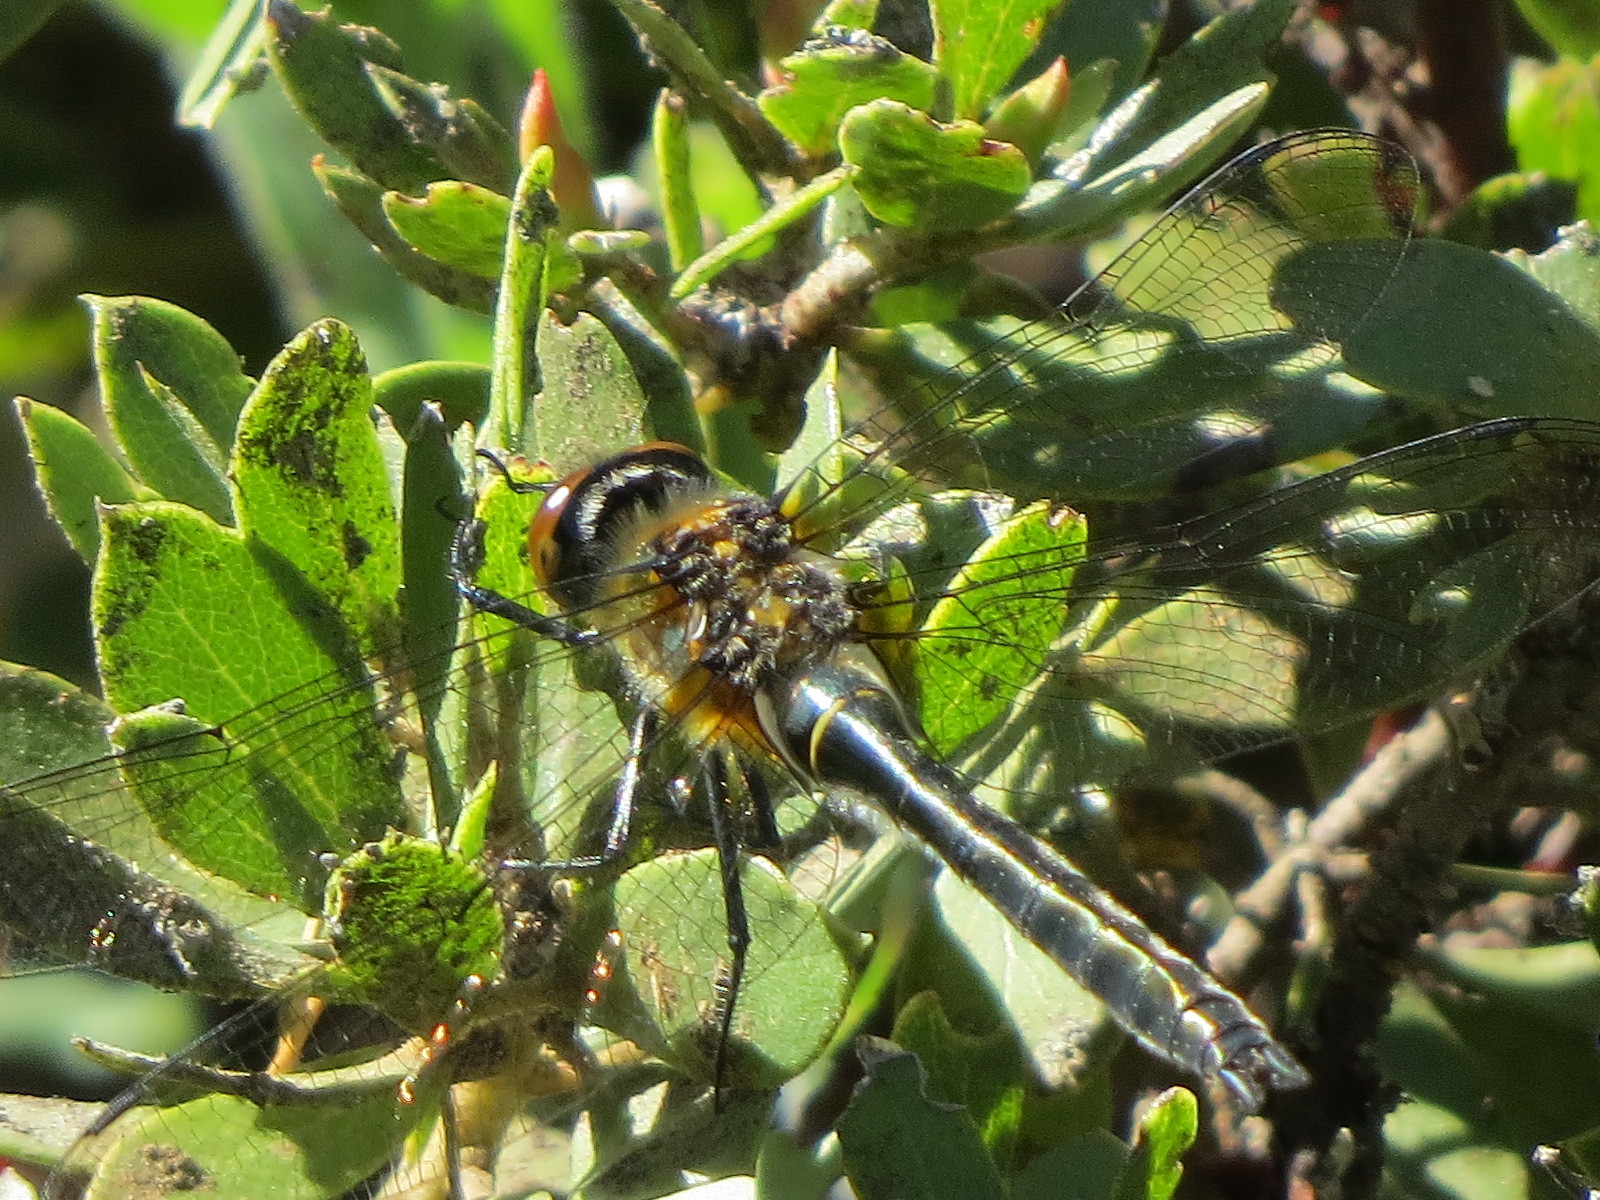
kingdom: Animalia
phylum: Arthropoda
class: Insecta
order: Odonata
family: Corduliidae
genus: Cordulia
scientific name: Cordulia shurtleffii
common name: American emerald
